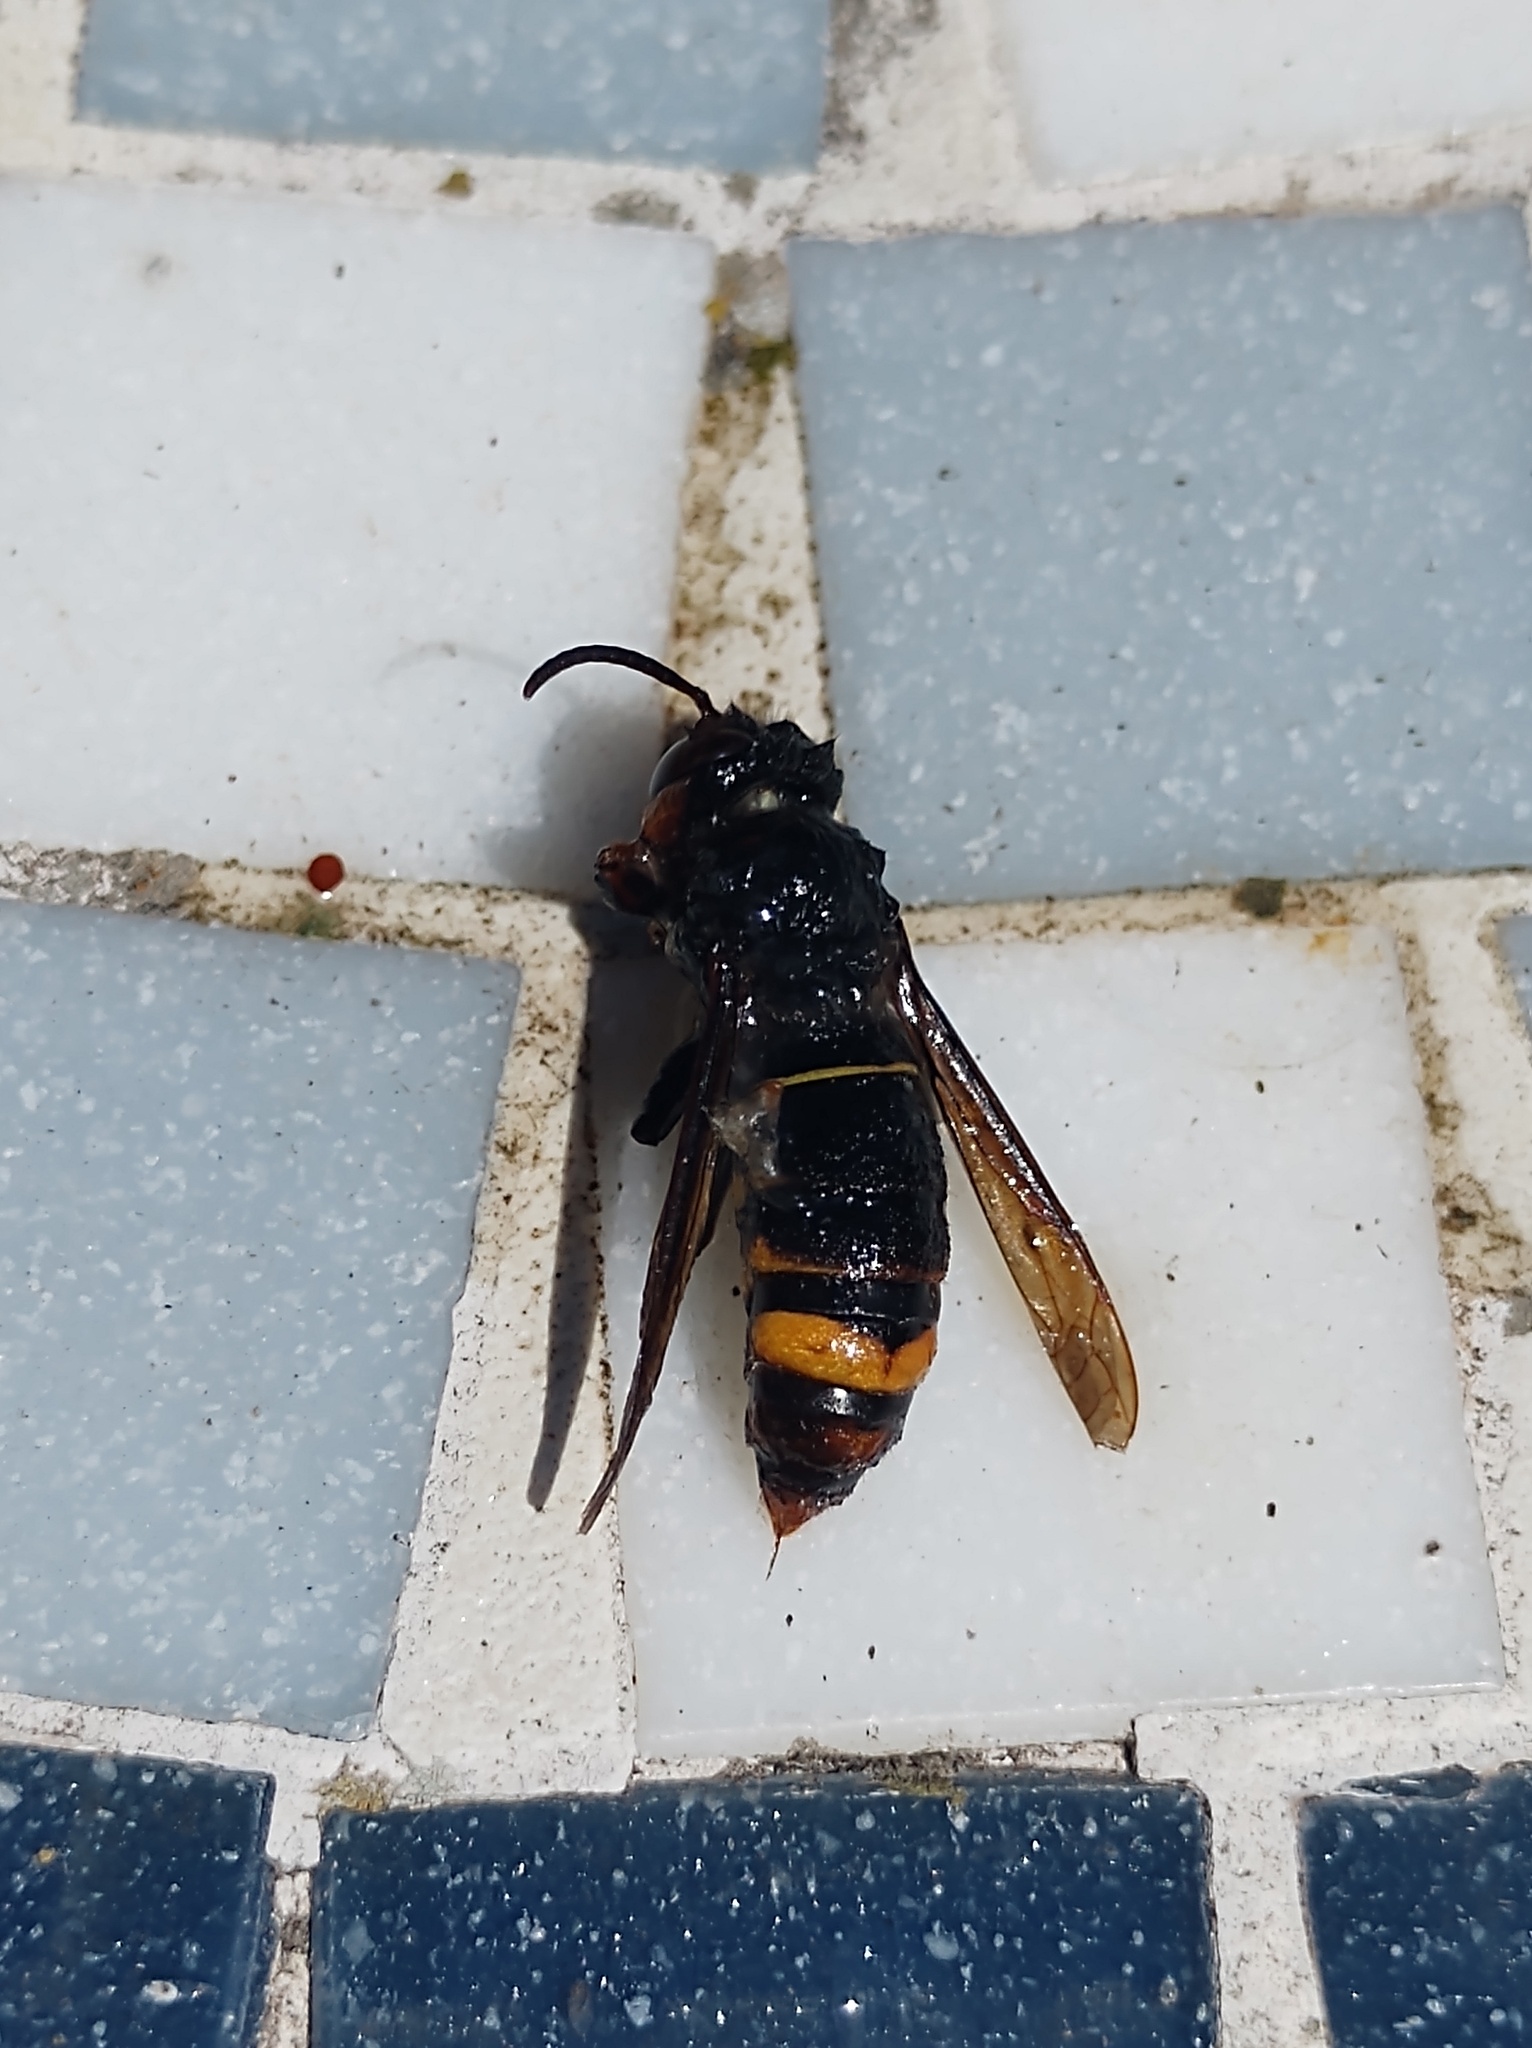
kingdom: Animalia
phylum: Arthropoda
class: Insecta
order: Hymenoptera
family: Vespidae
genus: Vespa
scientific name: Vespa velutina
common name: Asian hornet
